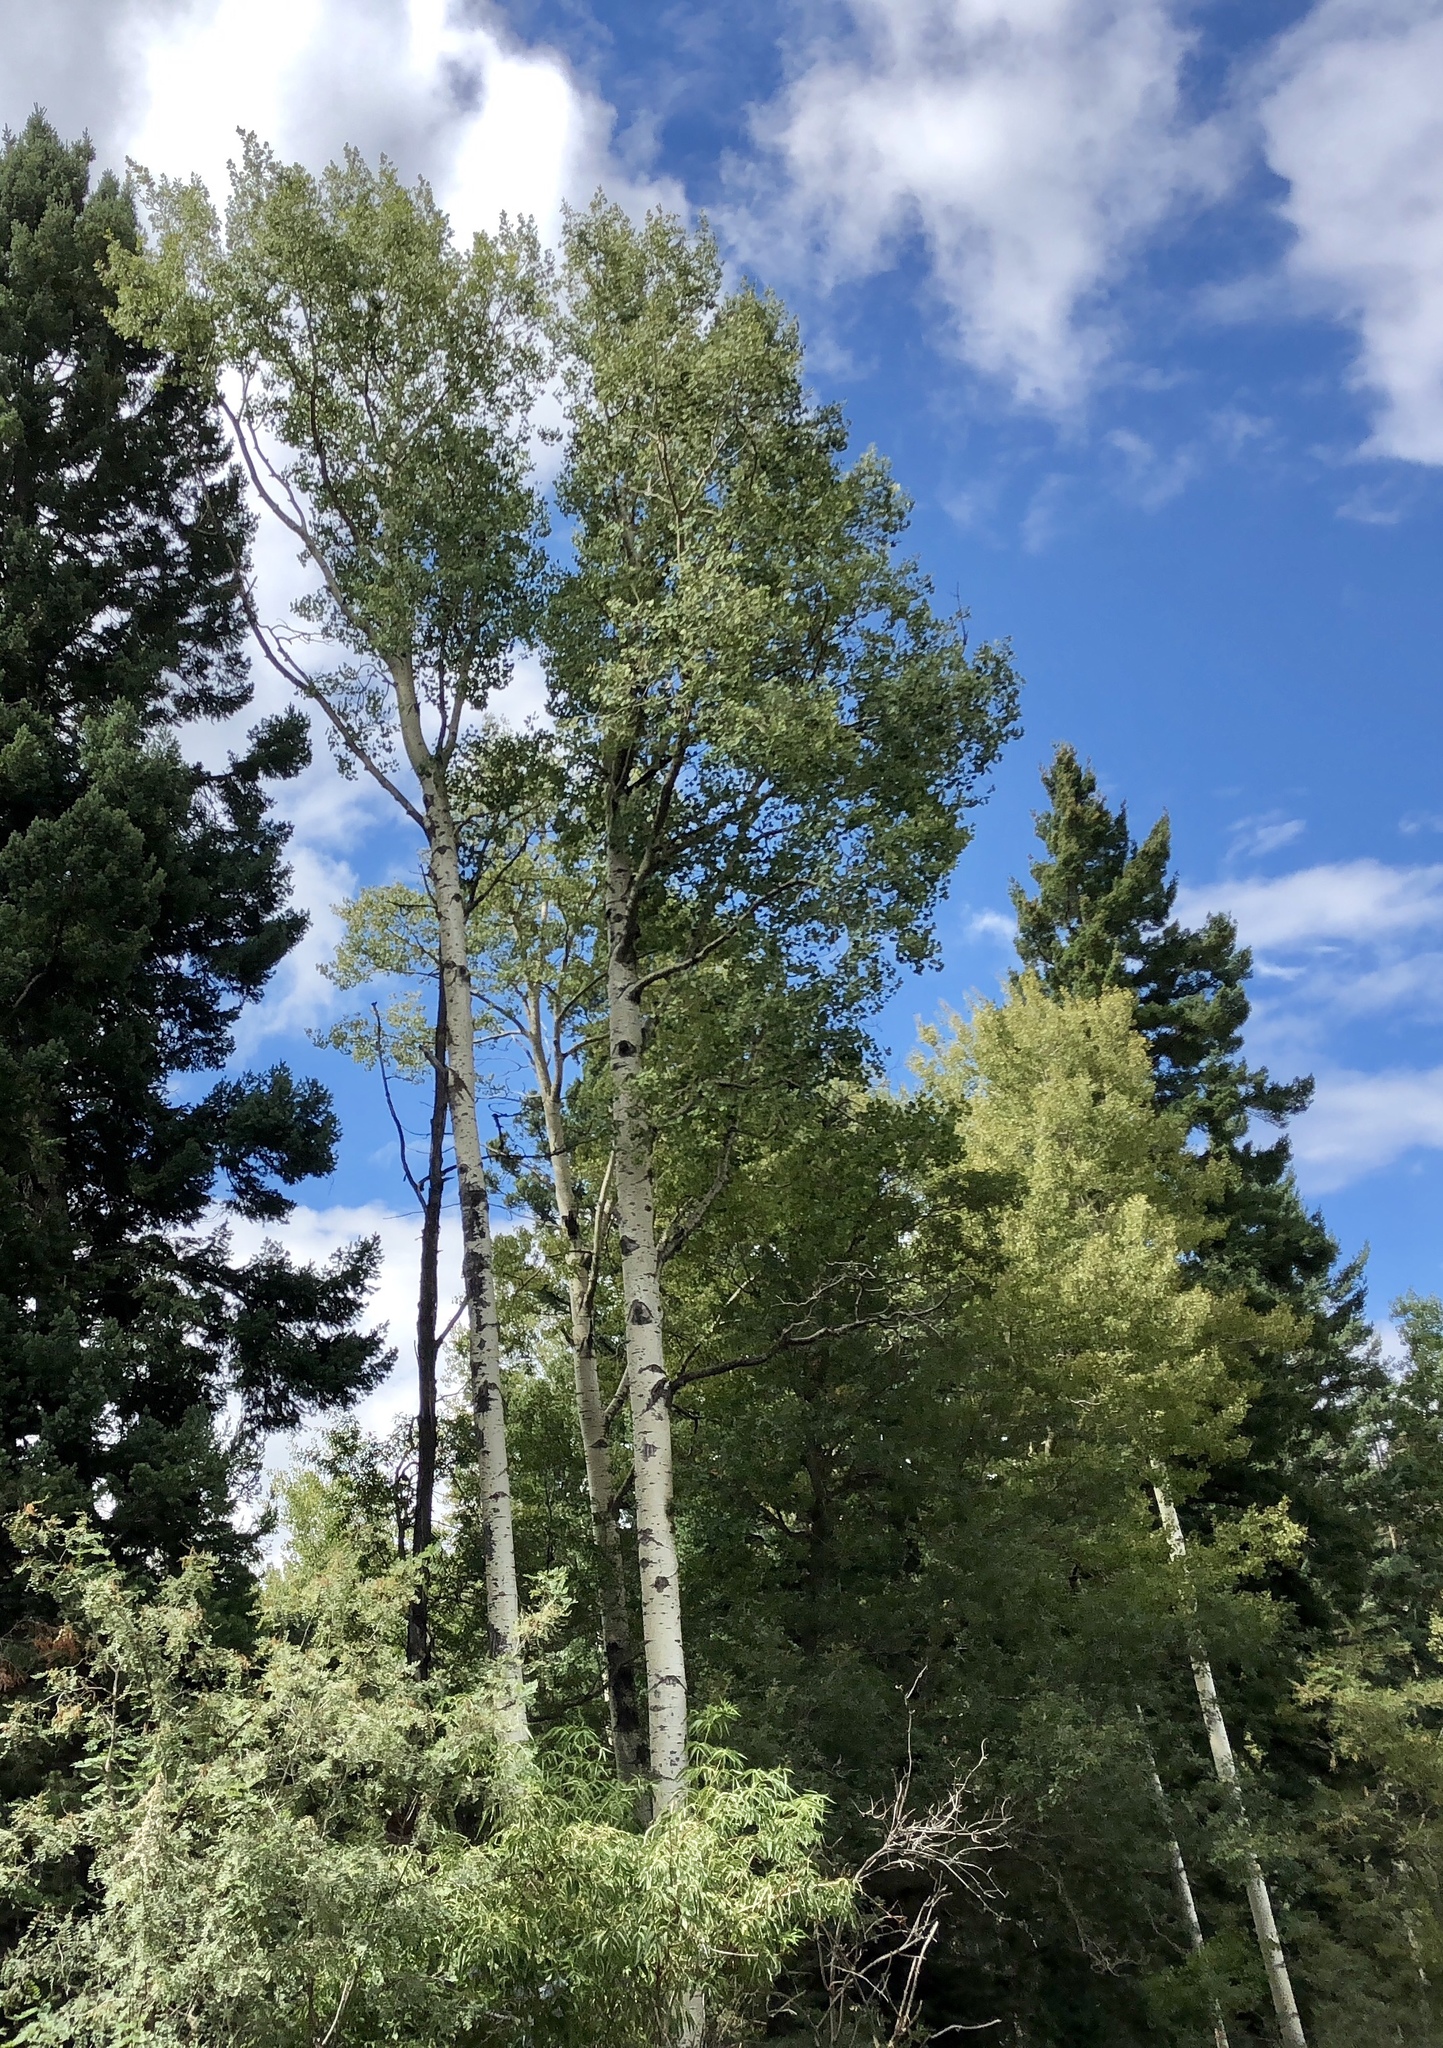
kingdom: Plantae
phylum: Tracheophyta
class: Magnoliopsida
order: Malpighiales
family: Salicaceae
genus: Populus
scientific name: Populus tremuloides
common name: Quaking aspen
